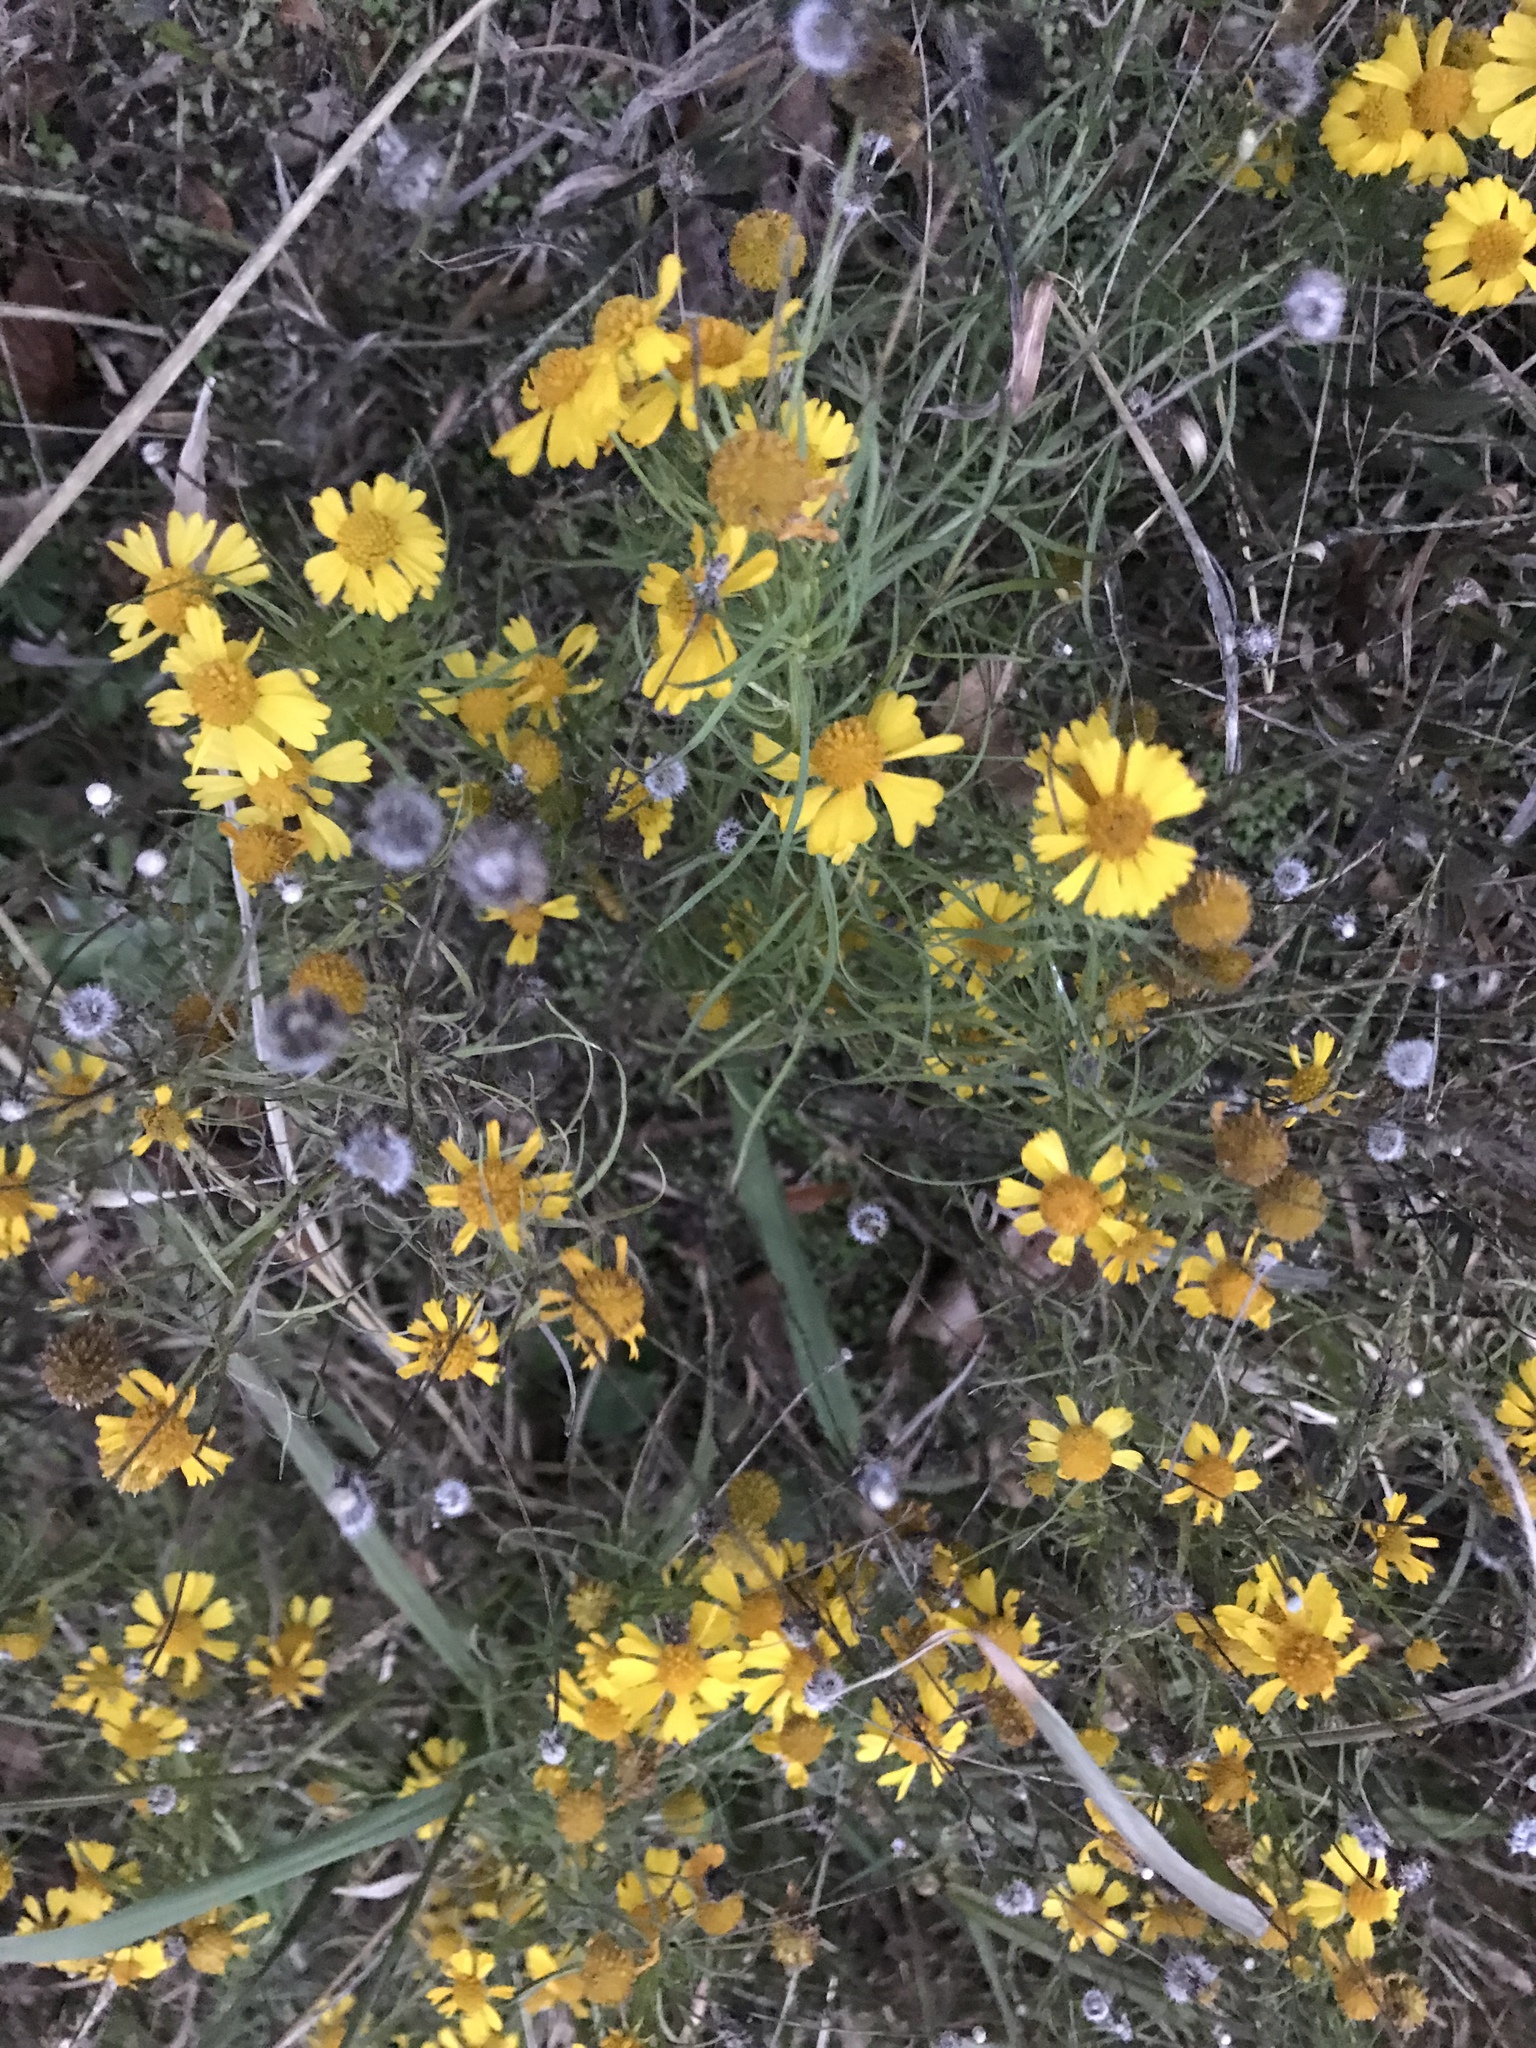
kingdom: Plantae
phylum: Tracheophyta
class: Magnoliopsida
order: Asterales
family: Asteraceae
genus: Helenium
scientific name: Helenium amarum
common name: Bitter sneezeweed
